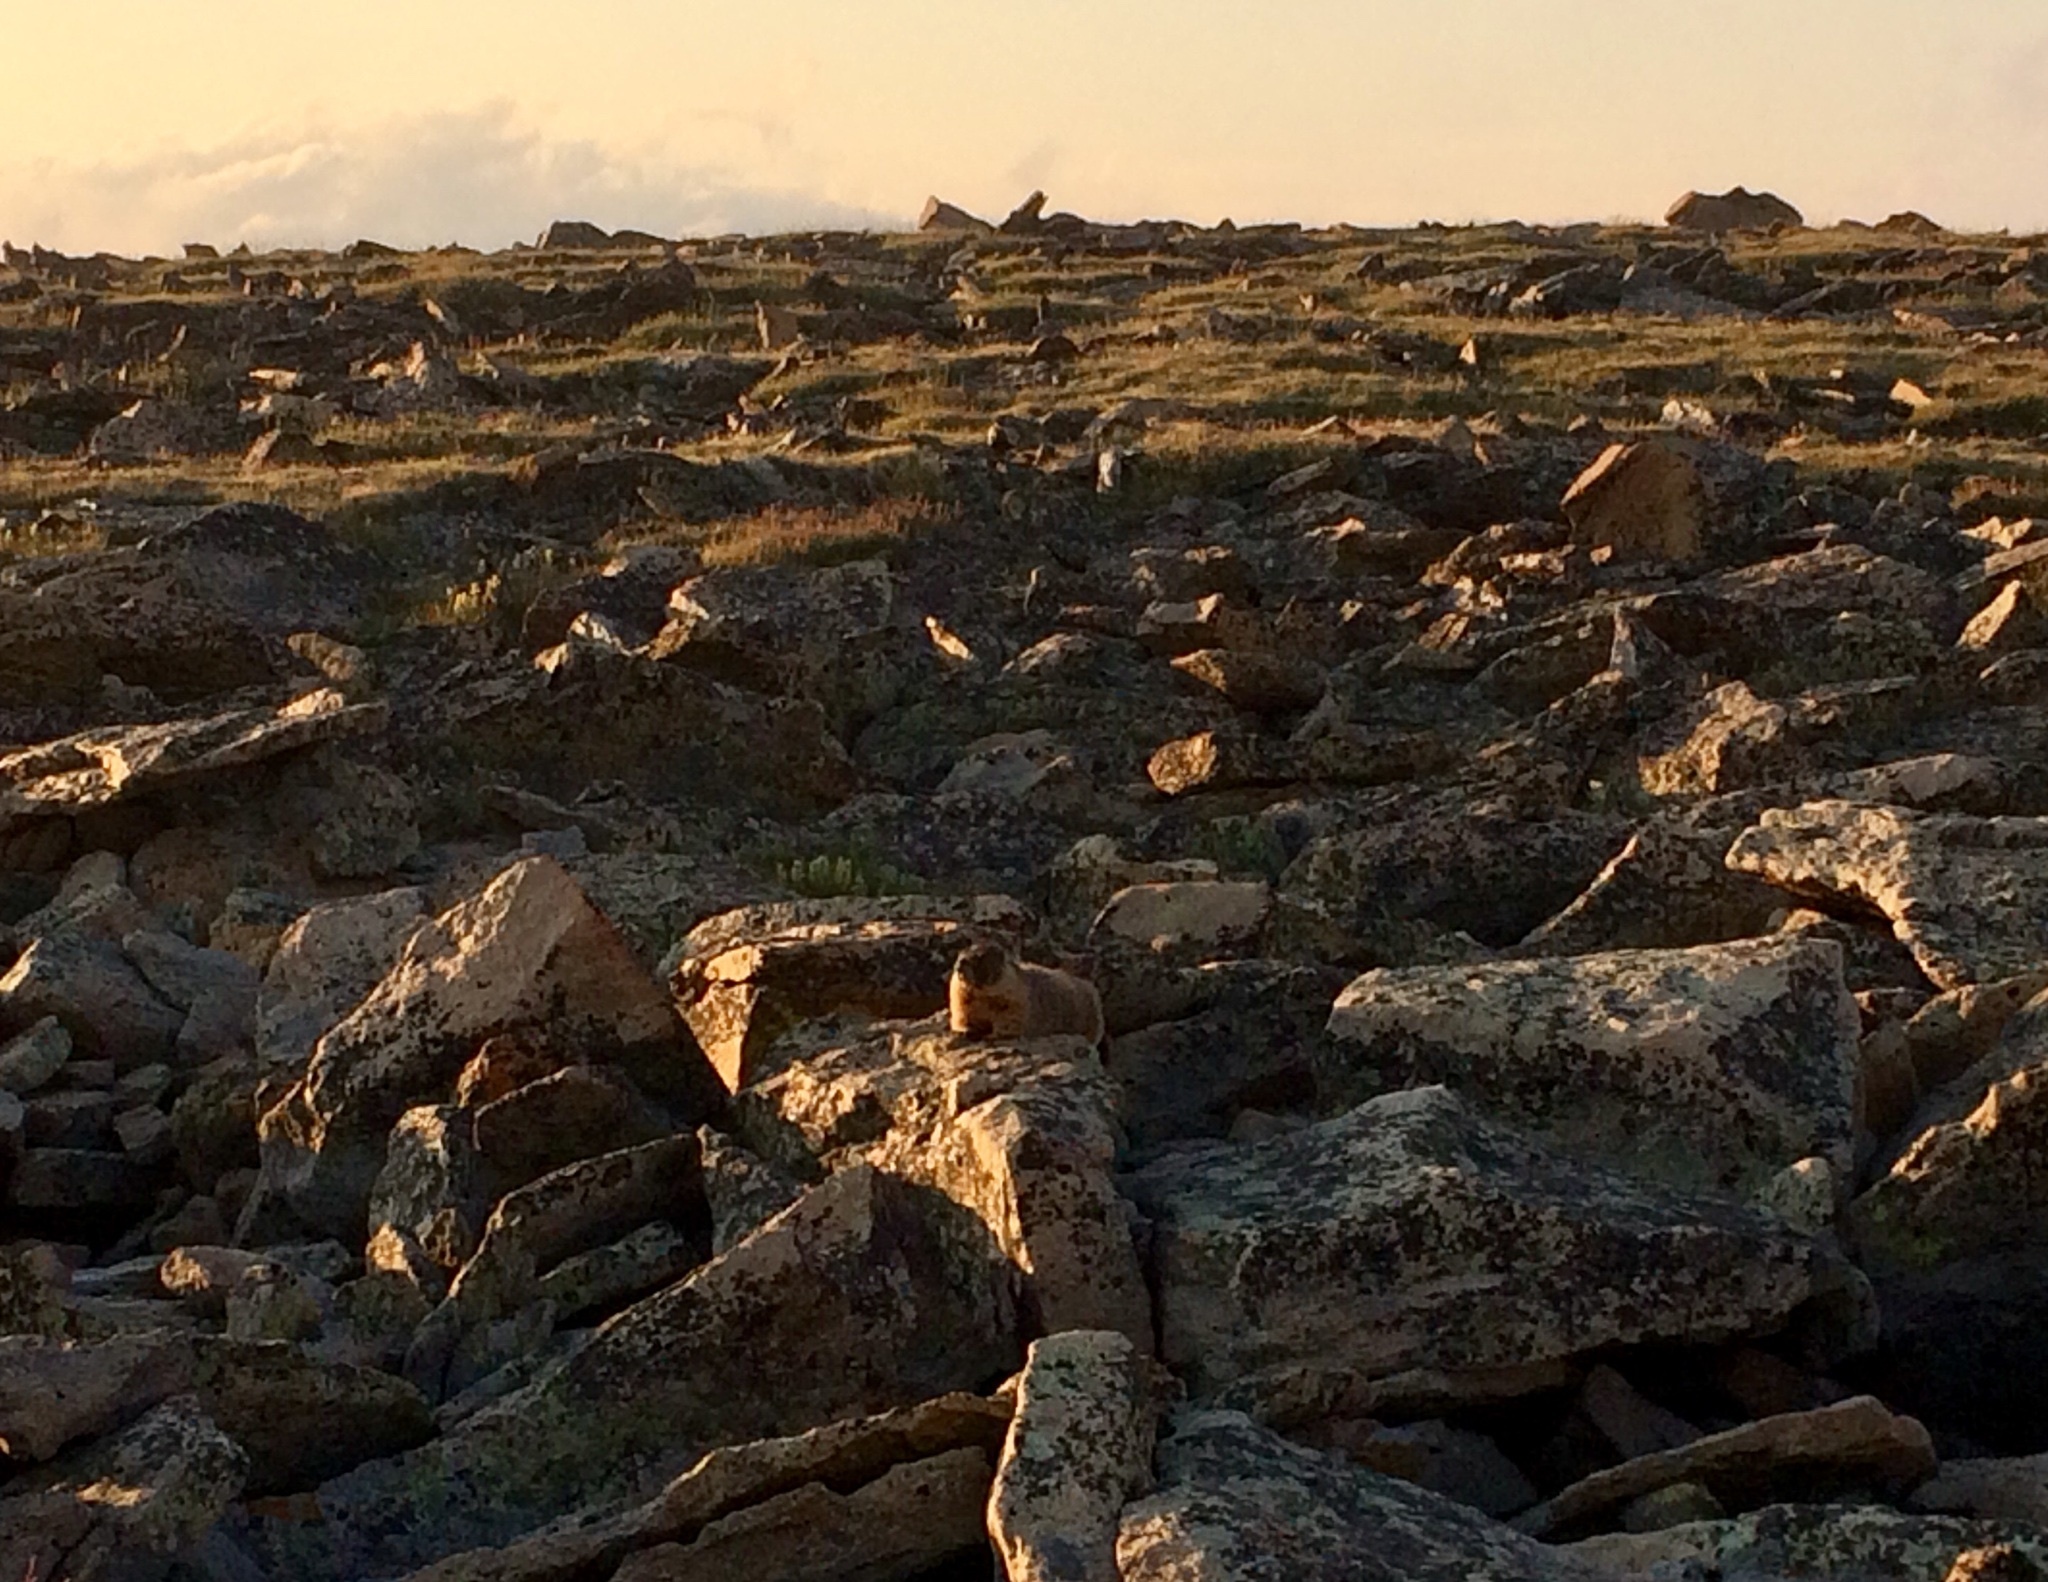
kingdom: Animalia
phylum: Chordata
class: Mammalia
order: Rodentia
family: Sciuridae
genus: Marmota
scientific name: Marmota flaviventris
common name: Yellow-bellied marmot
